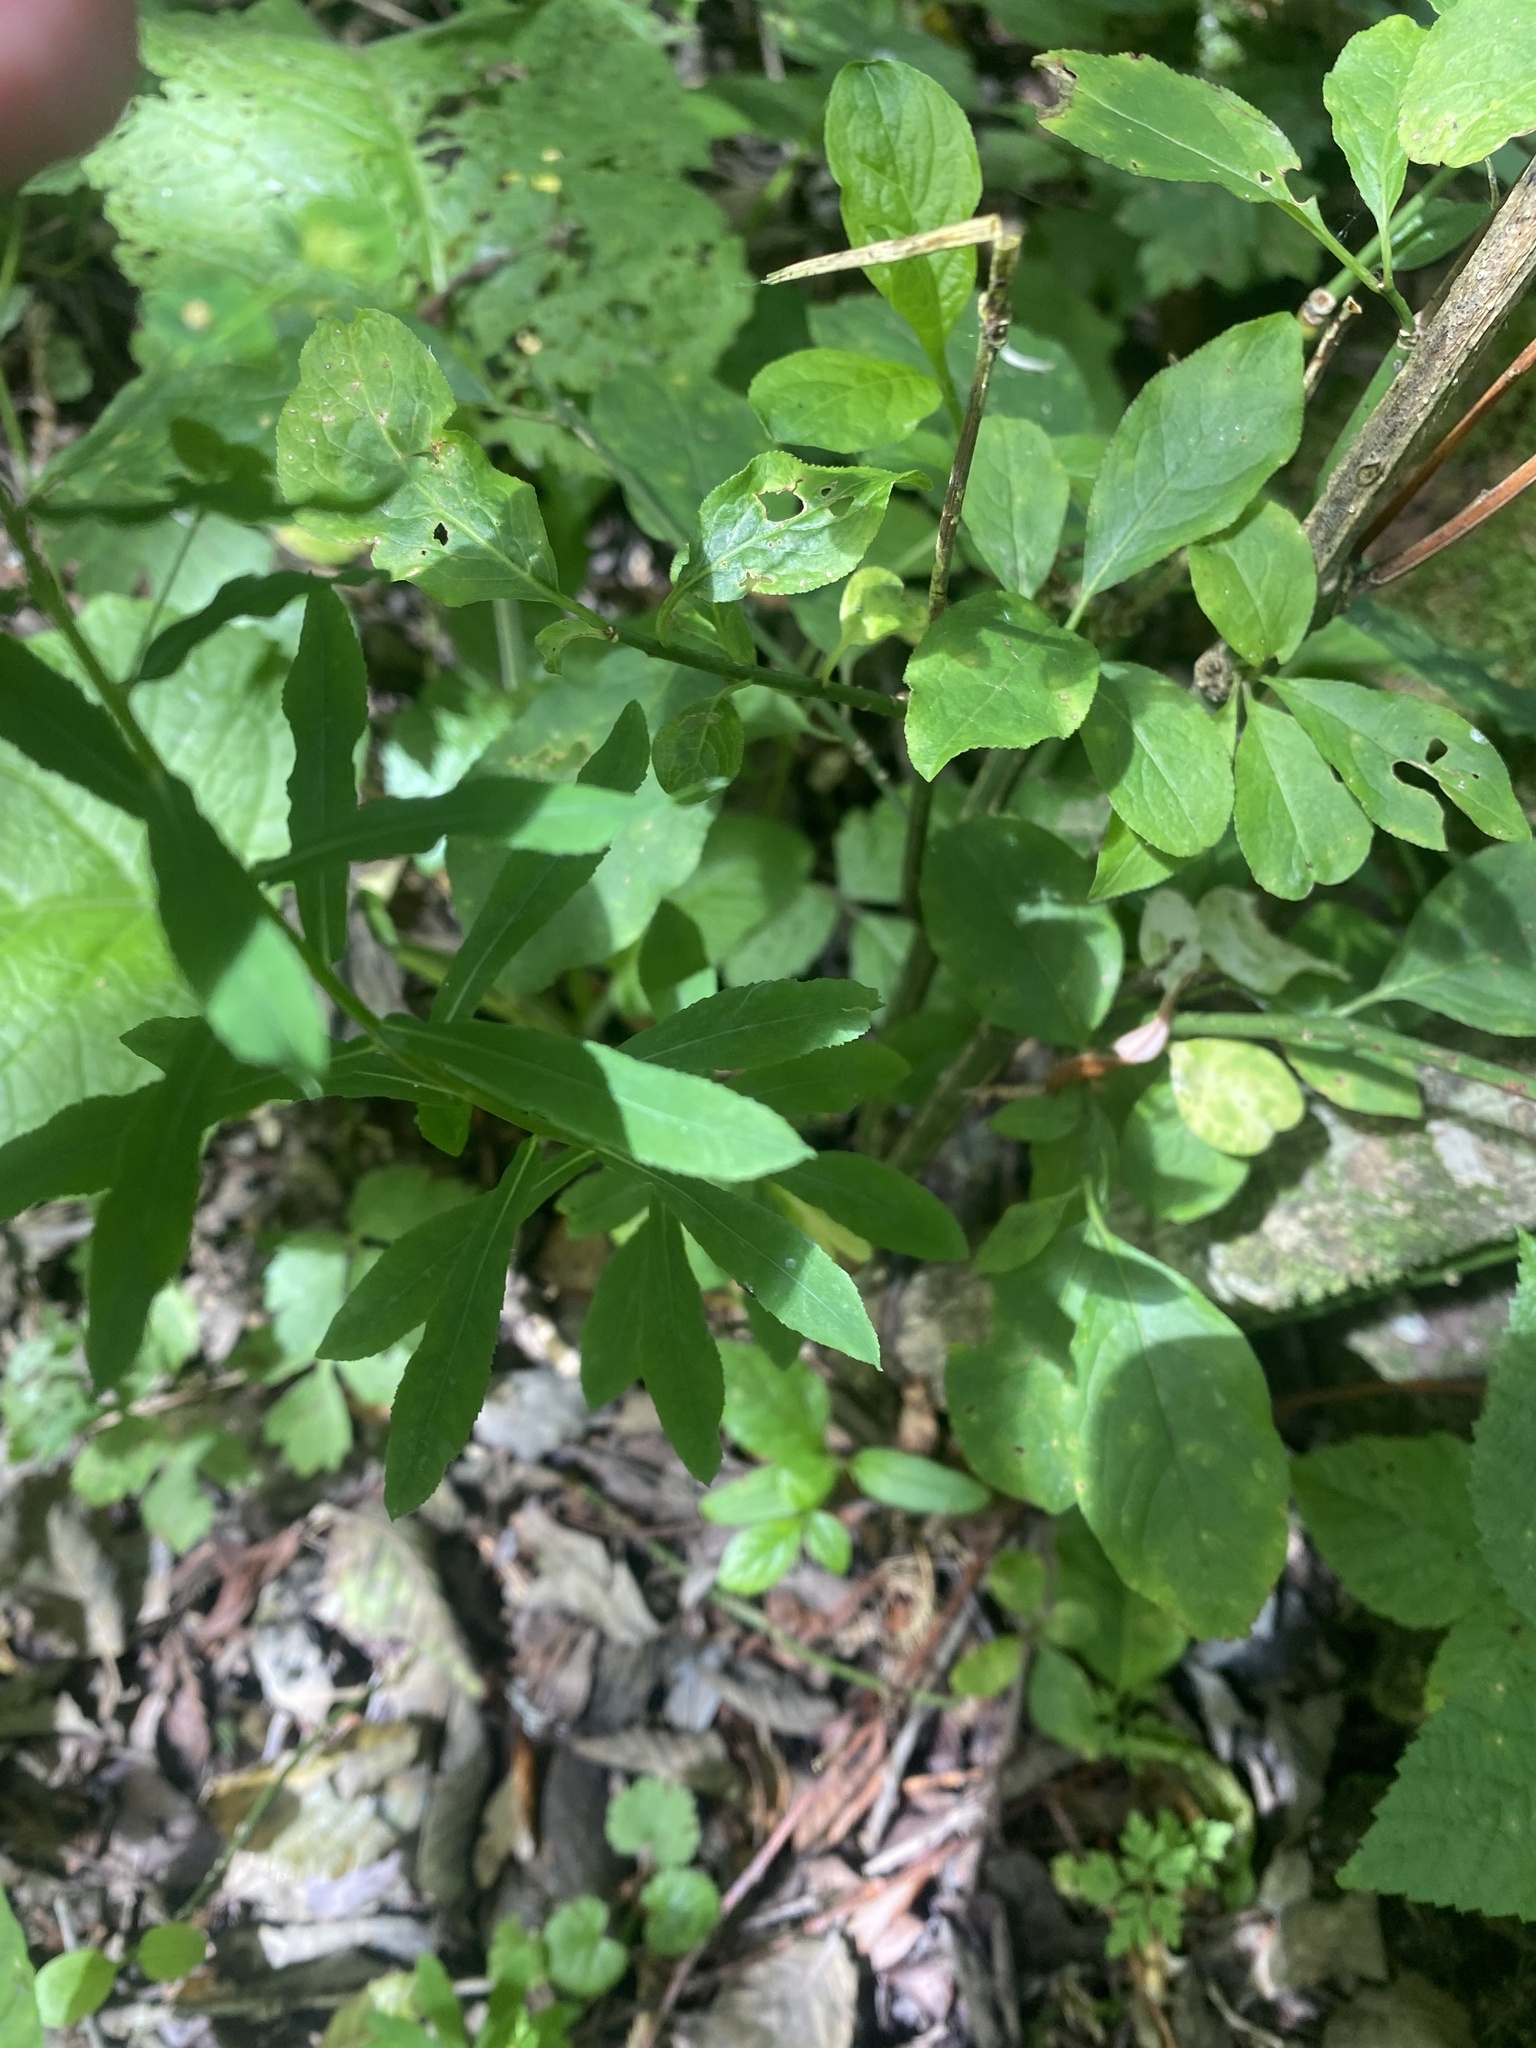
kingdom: Plantae
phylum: Tracheophyta
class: Magnoliopsida
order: Malpighiales
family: Euphorbiaceae
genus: Euphorbia
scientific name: Euphorbia stricta
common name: Upright spurge
